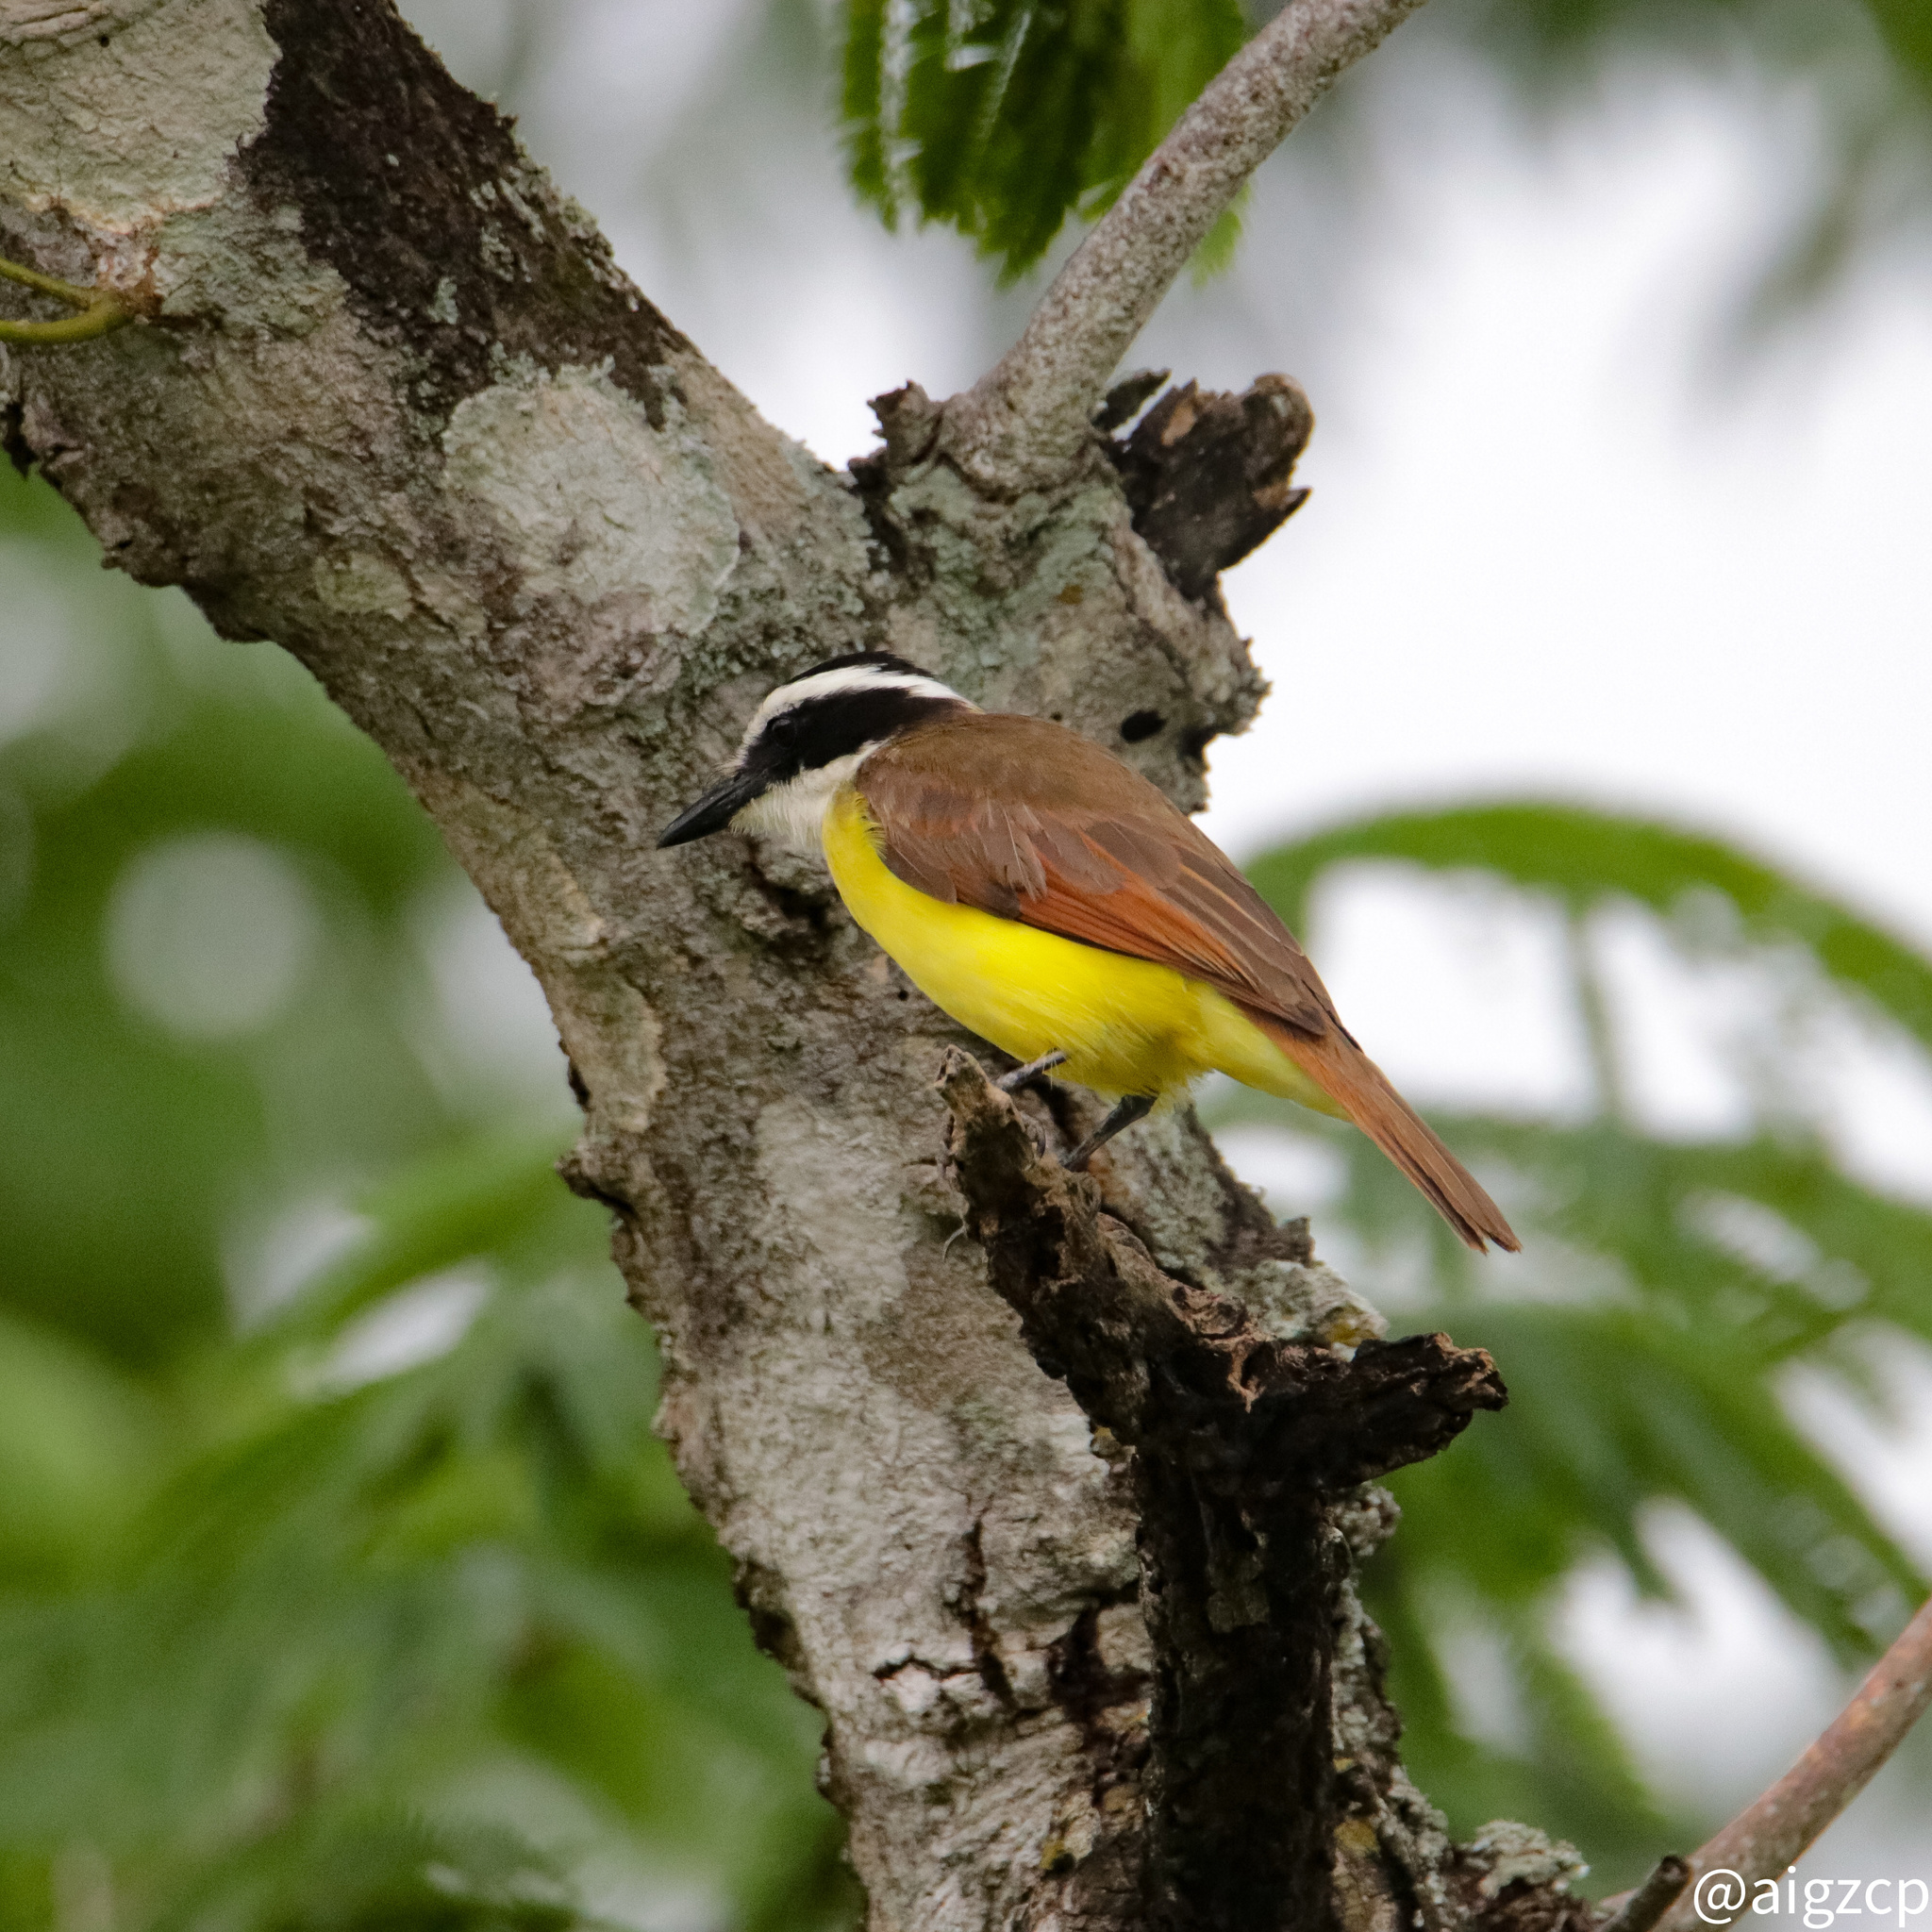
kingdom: Animalia
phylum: Chordata
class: Aves
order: Passeriformes
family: Tyrannidae
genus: Pitangus
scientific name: Pitangus sulphuratus
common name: Great kiskadee
